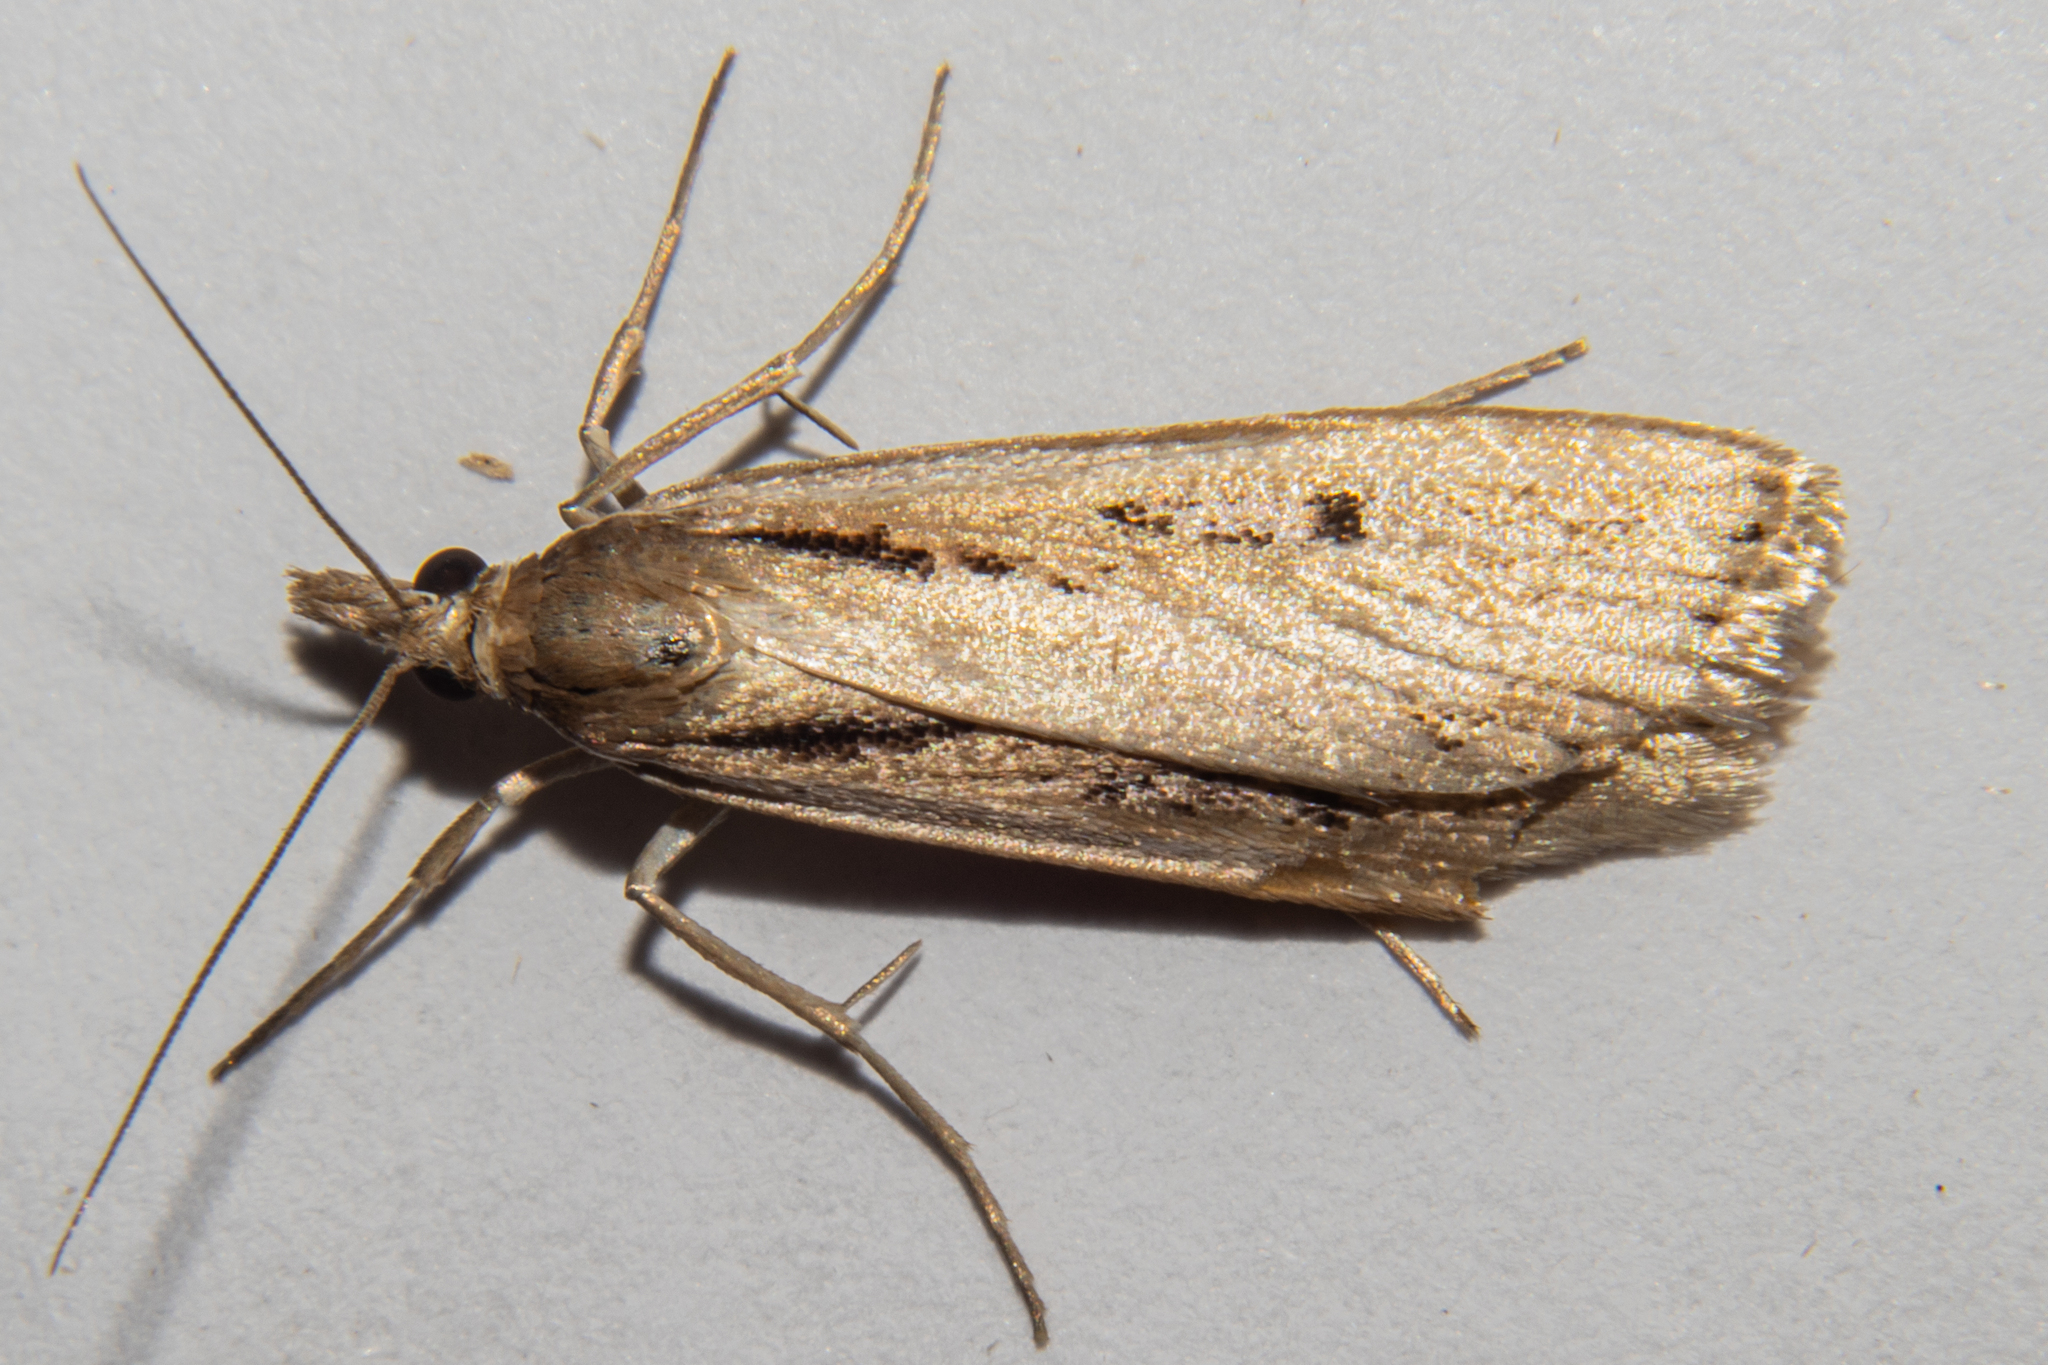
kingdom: Animalia
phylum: Arthropoda
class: Insecta
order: Lepidoptera
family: Crambidae
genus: Scoparia
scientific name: Scoparia rotuellus
